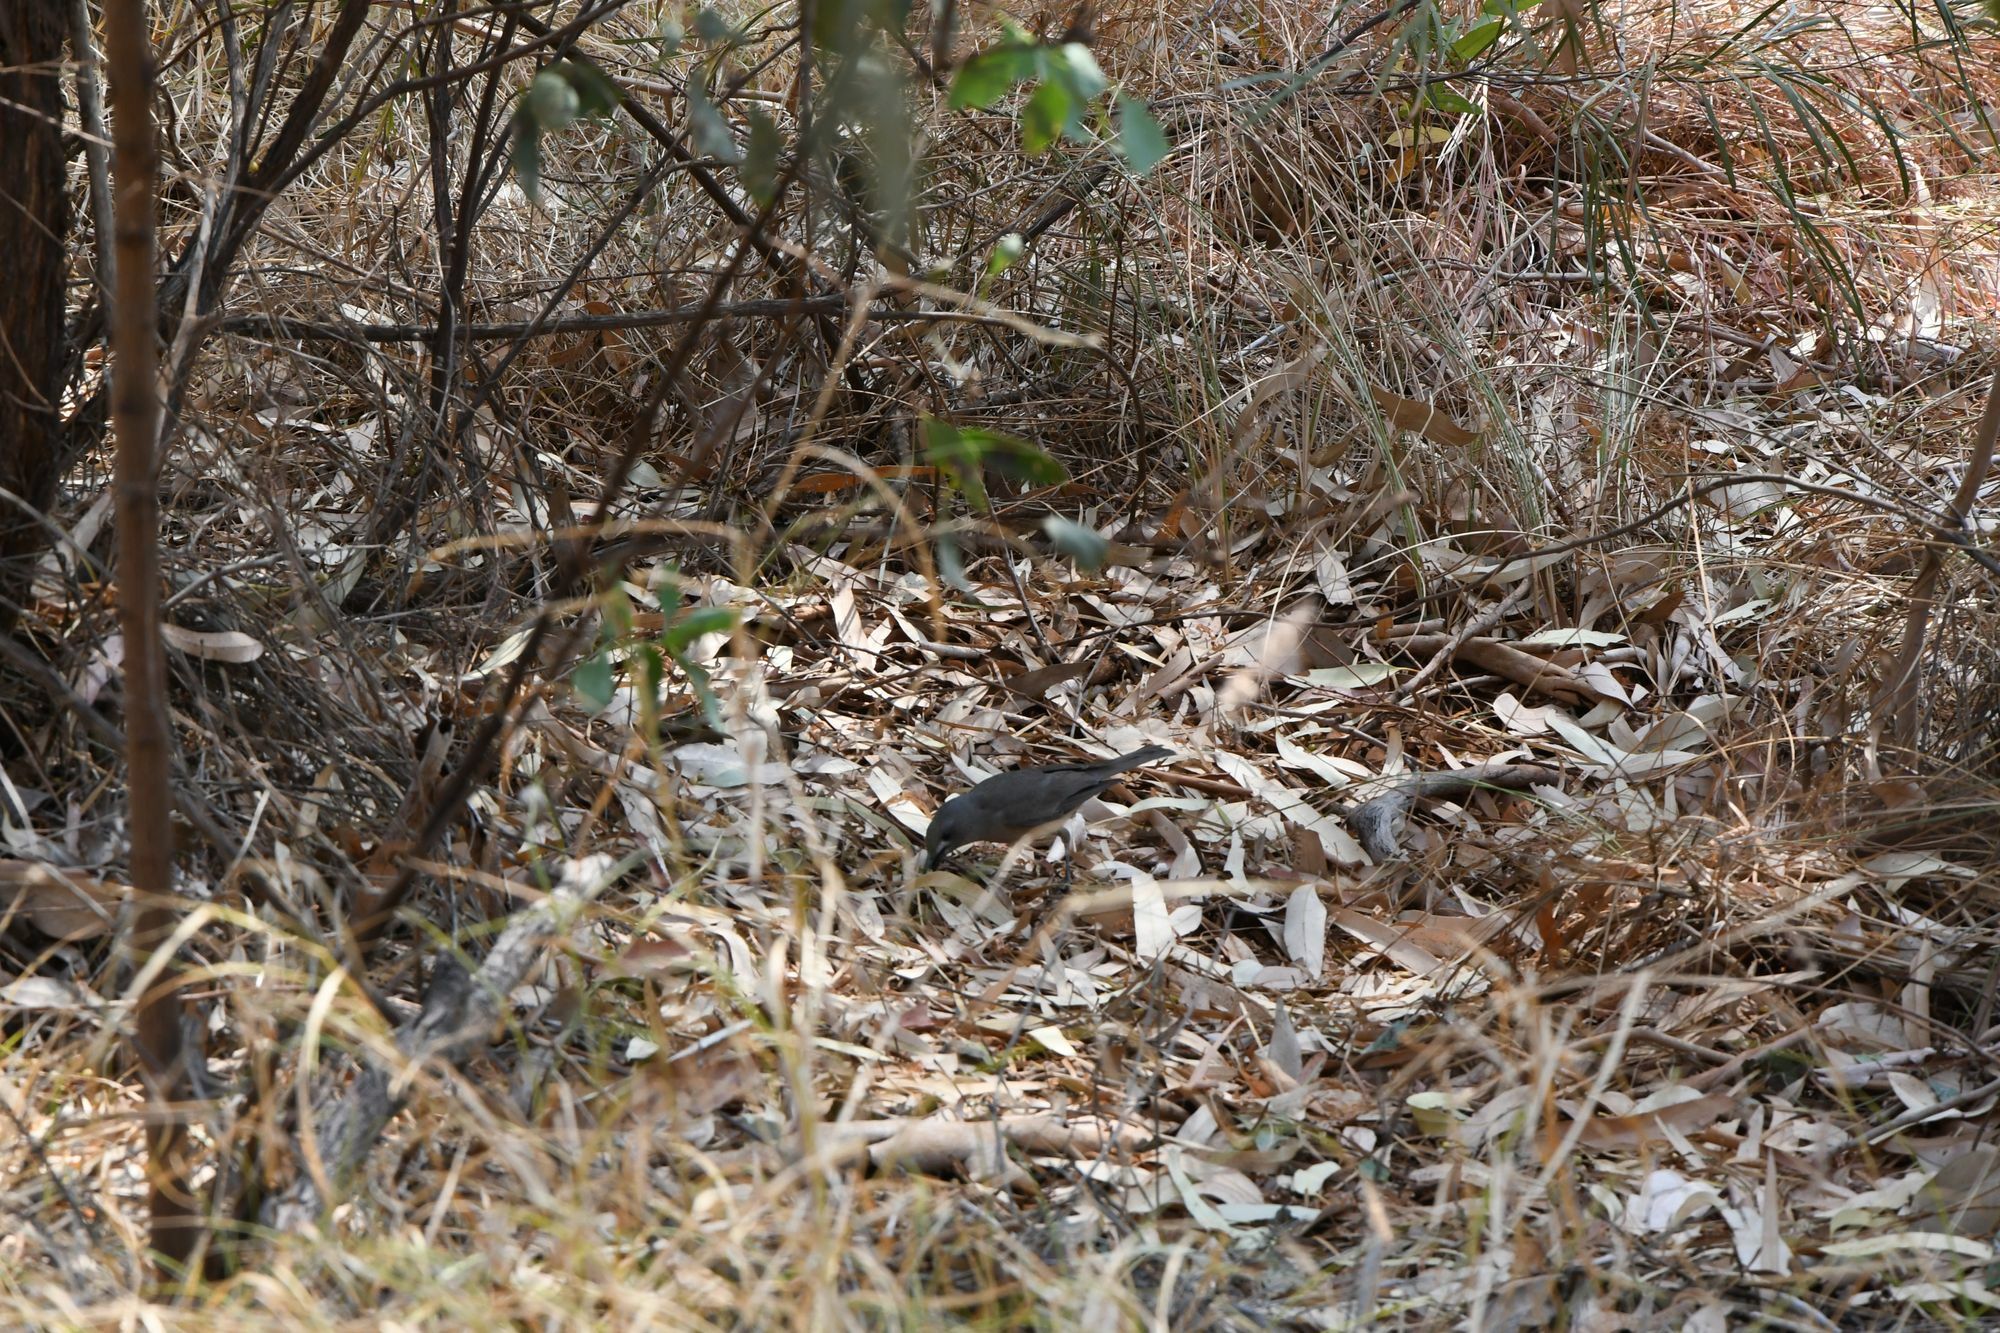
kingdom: Animalia
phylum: Chordata
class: Aves
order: Passeriformes
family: Pachycephalidae
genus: Colluricincla
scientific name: Colluricincla harmonica
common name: Grey shrikethrush
